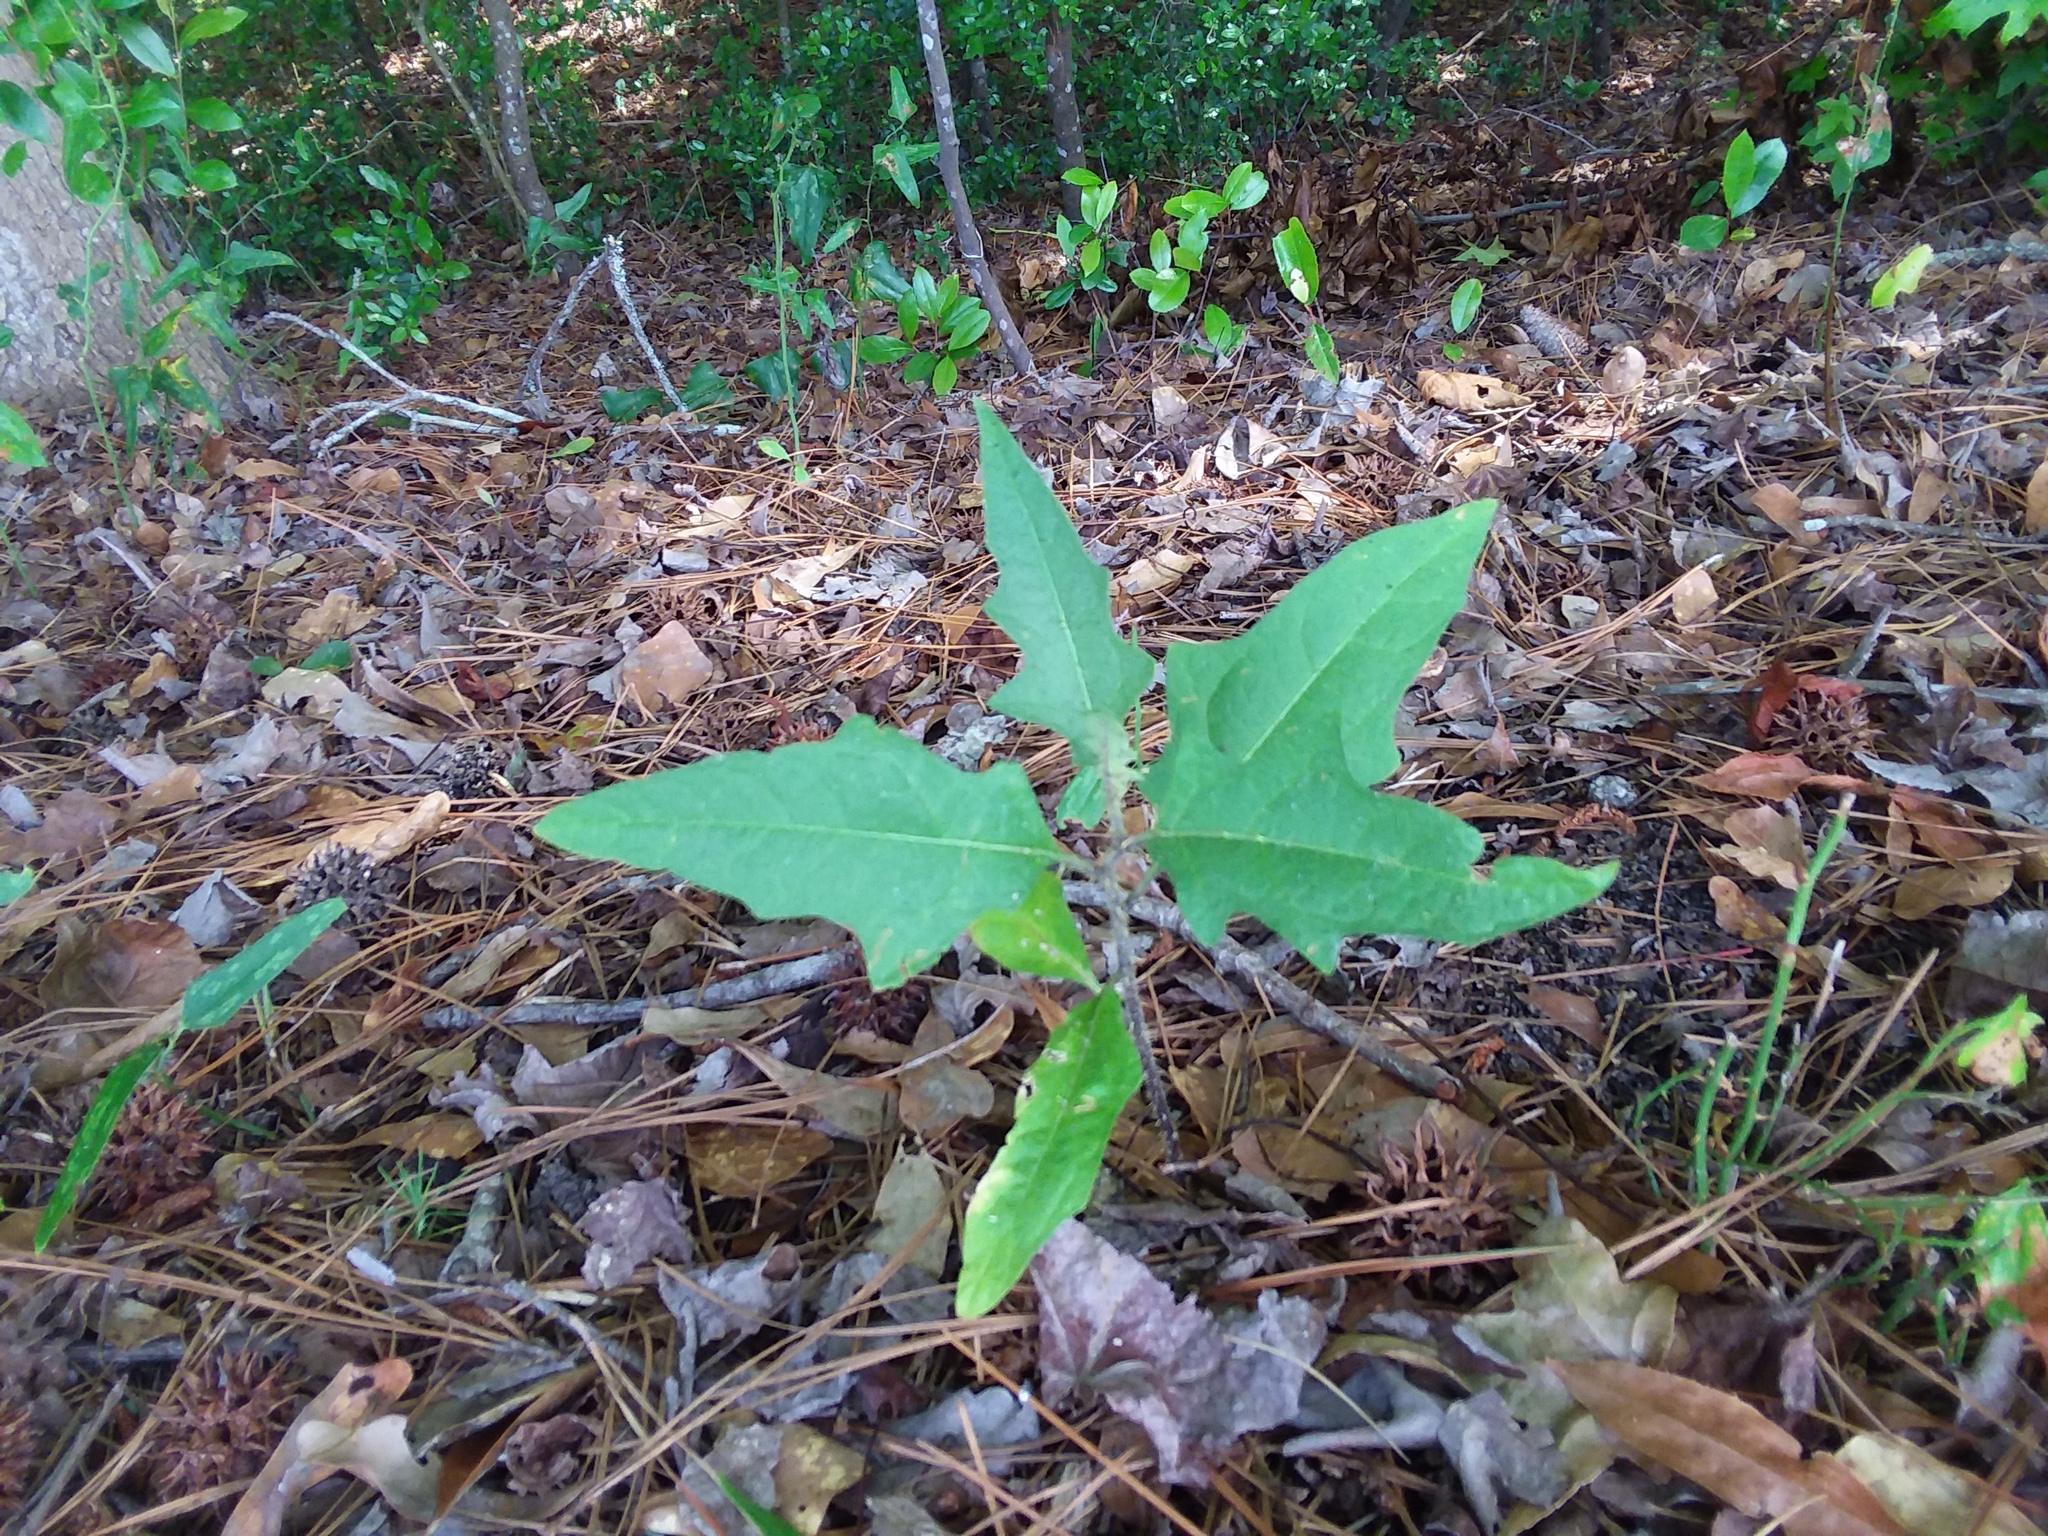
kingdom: Plantae
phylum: Tracheophyta
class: Magnoliopsida
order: Solanales
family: Solanaceae
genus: Solanum
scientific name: Solanum carolinense
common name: Horse-nettle
